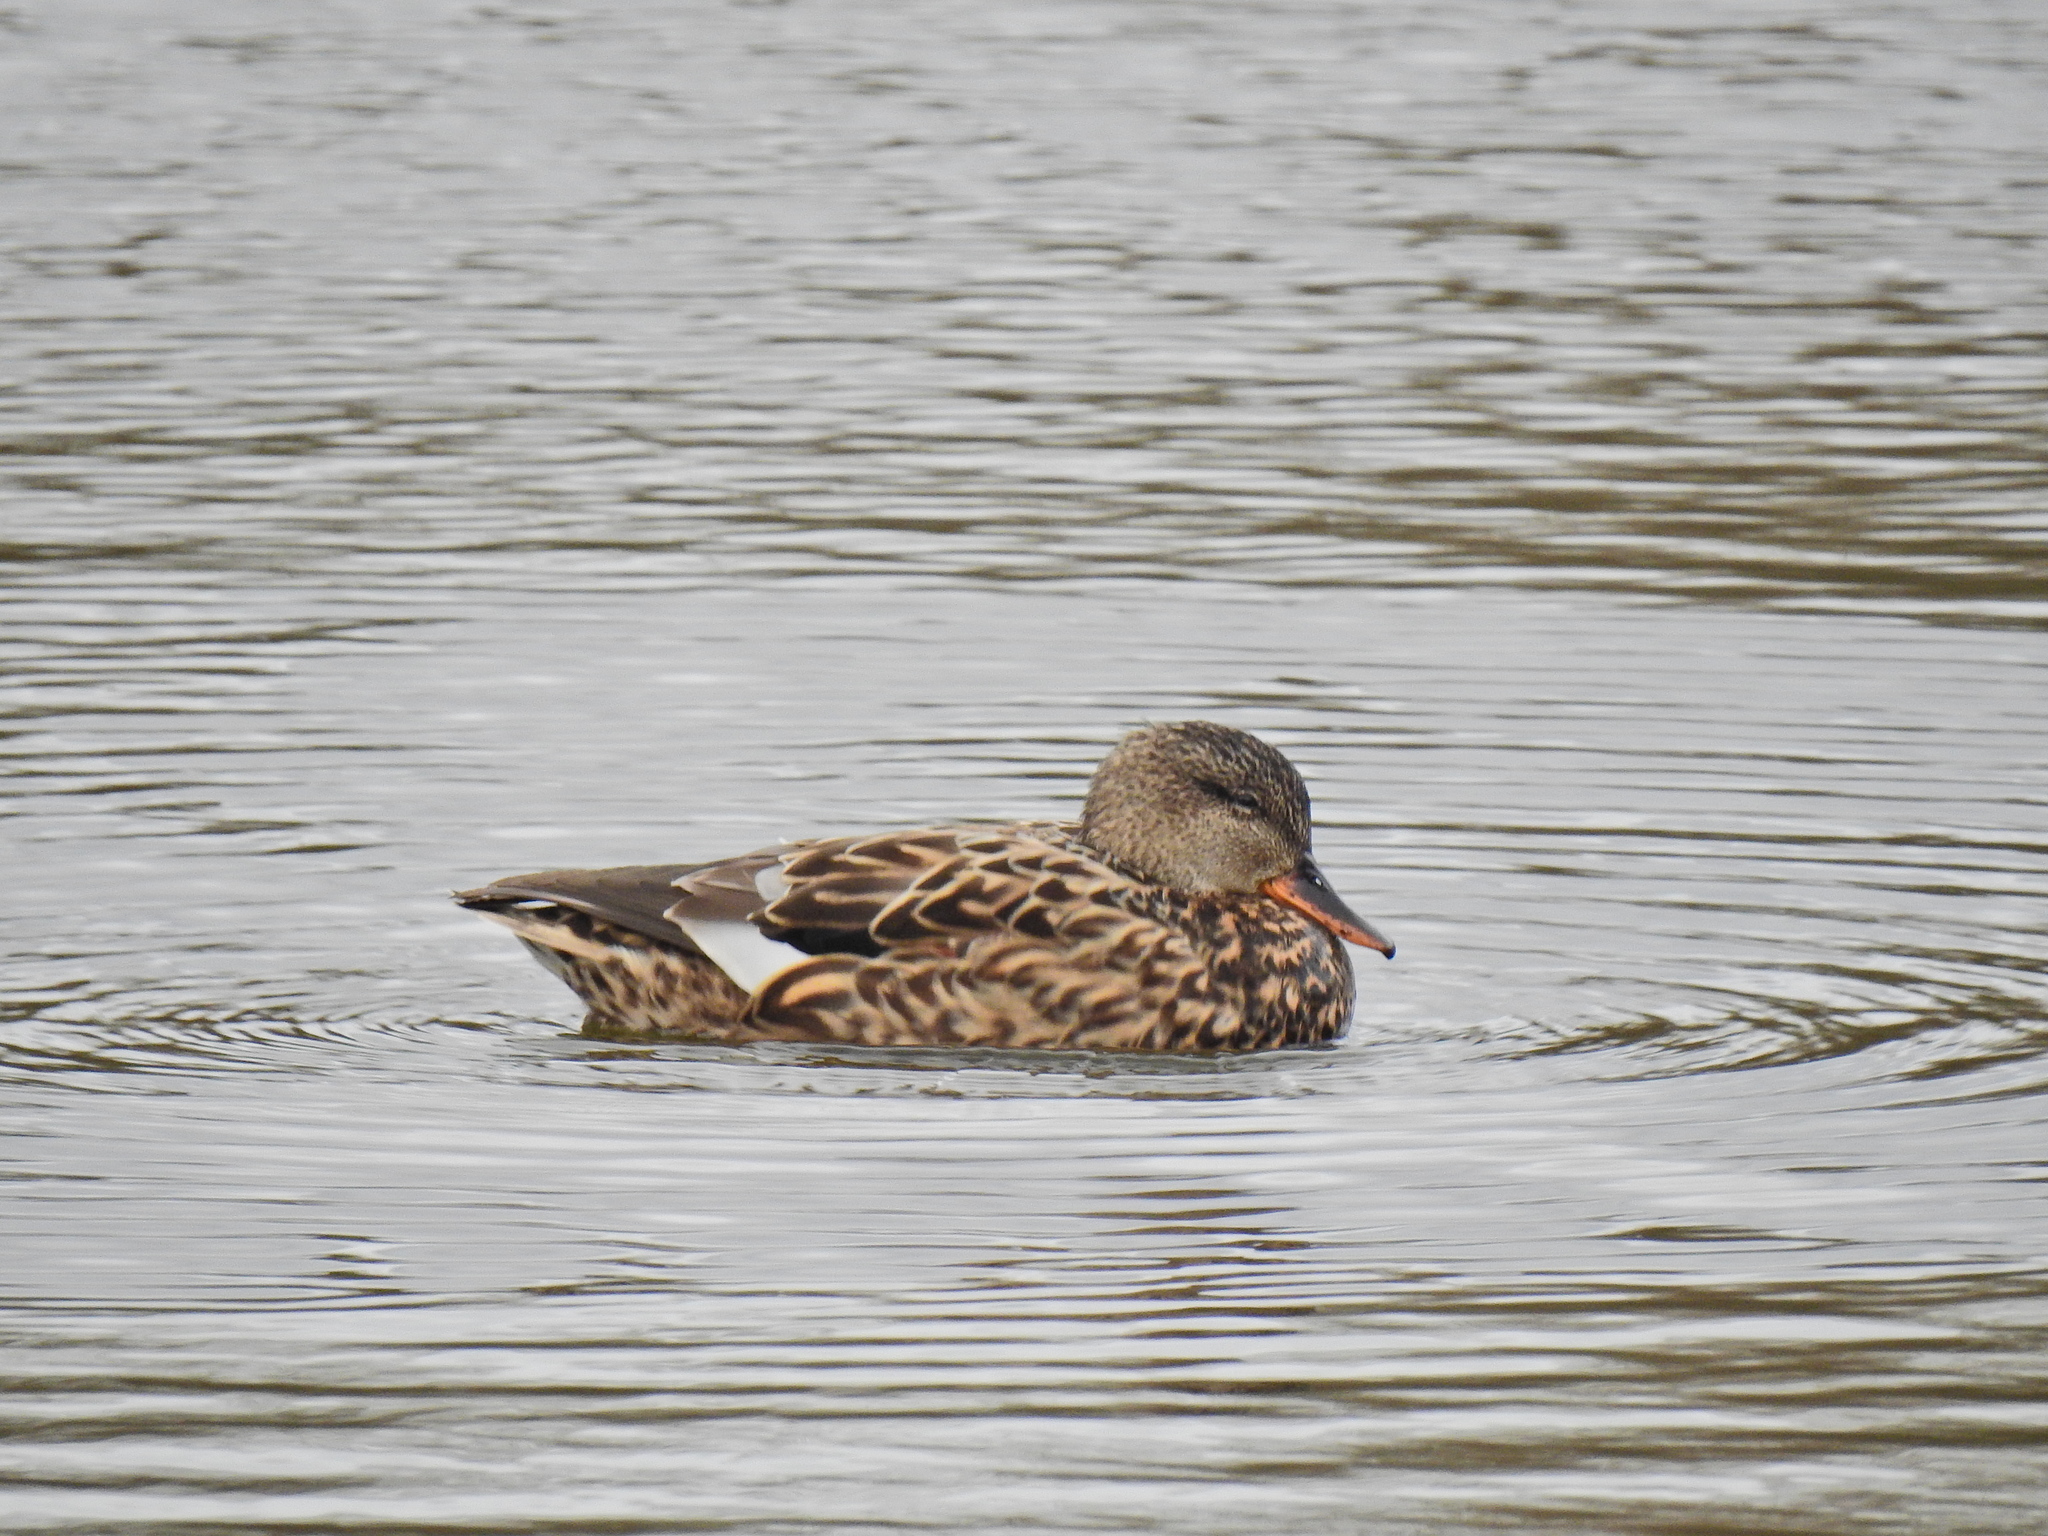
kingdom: Animalia
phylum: Chordata
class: Aves
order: Anseriformes
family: Anatidae
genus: Mareca
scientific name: Mareca strepera
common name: Gadwall
